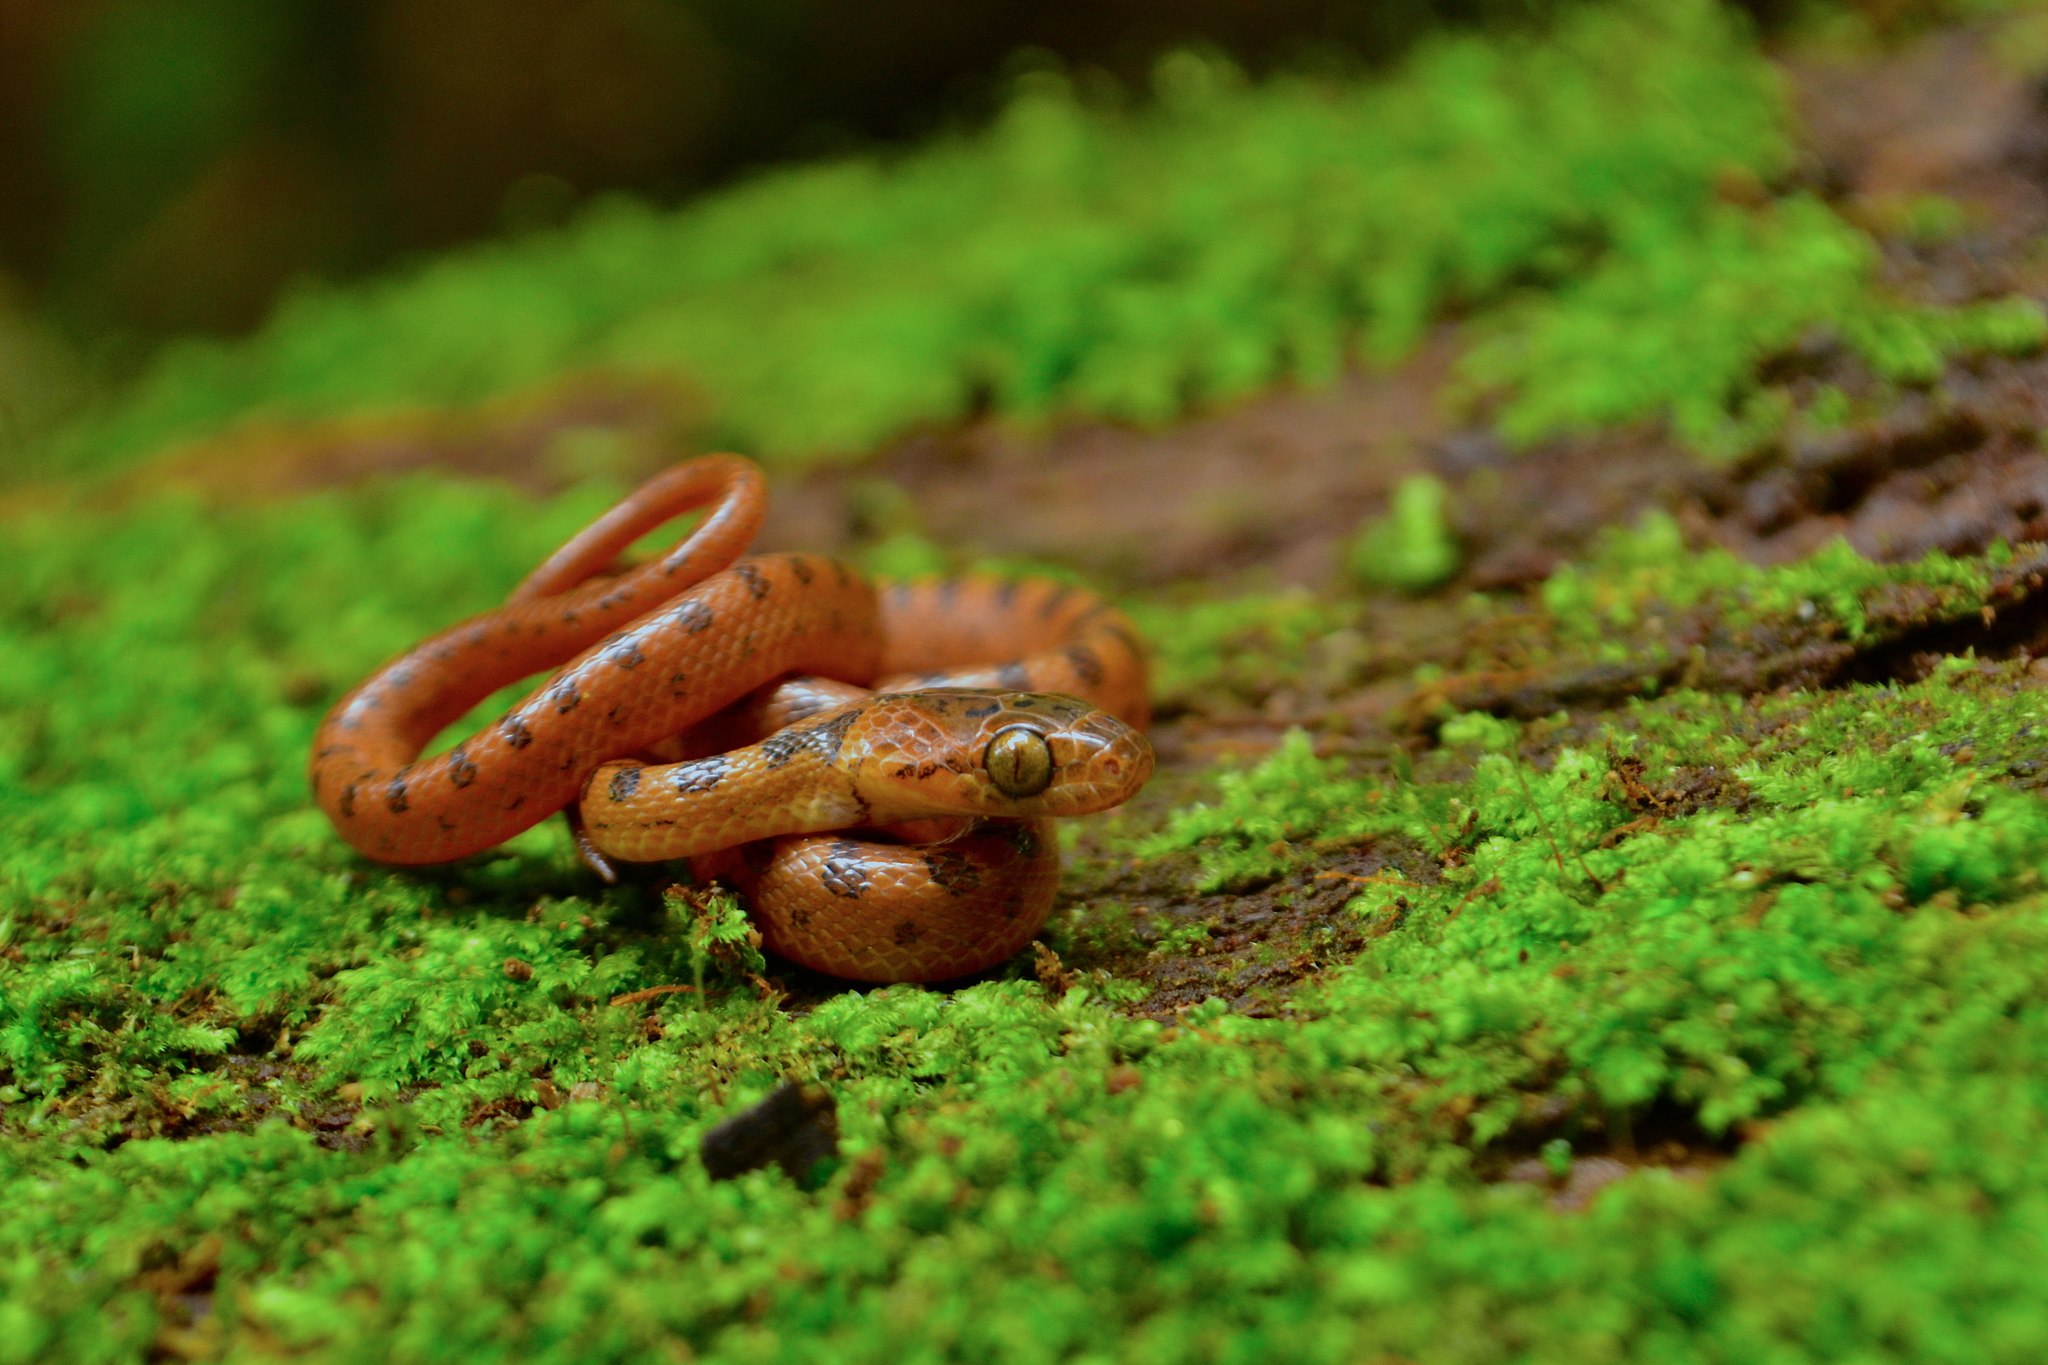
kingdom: Animalia
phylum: Chordata
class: Squamata
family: Colubridae
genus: Leptodeira
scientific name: Leptodeira septentrionalis
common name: Northern cat-eyed snake
